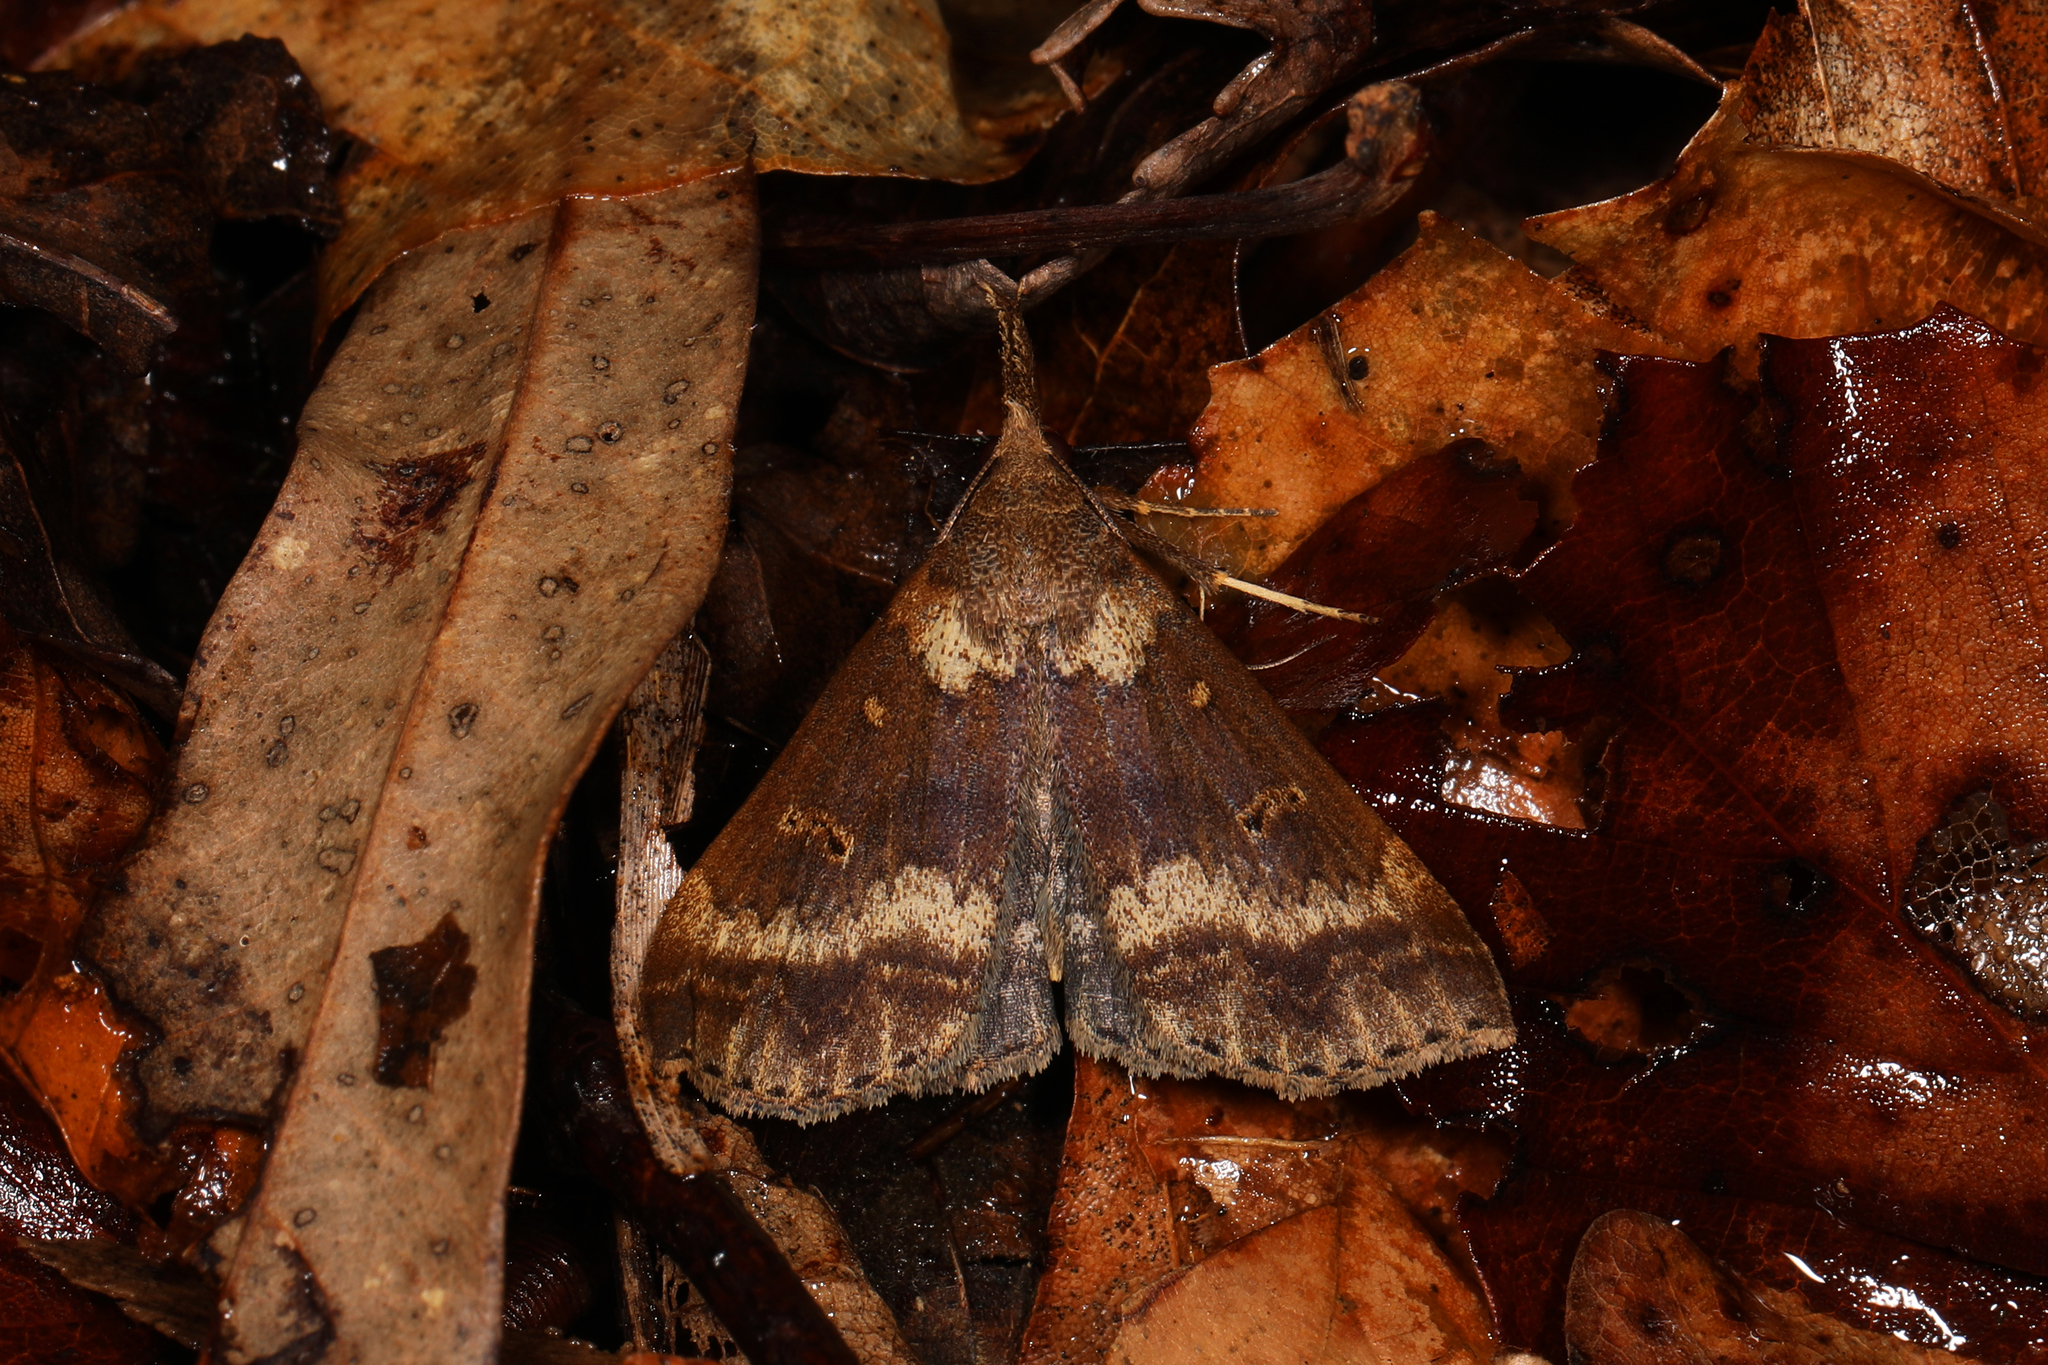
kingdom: Animalia
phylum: Arthropoda
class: Insecta
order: Lepidoptera
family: Erebidae
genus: Renia
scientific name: Renia discoloralis
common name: Discolored renia moth
